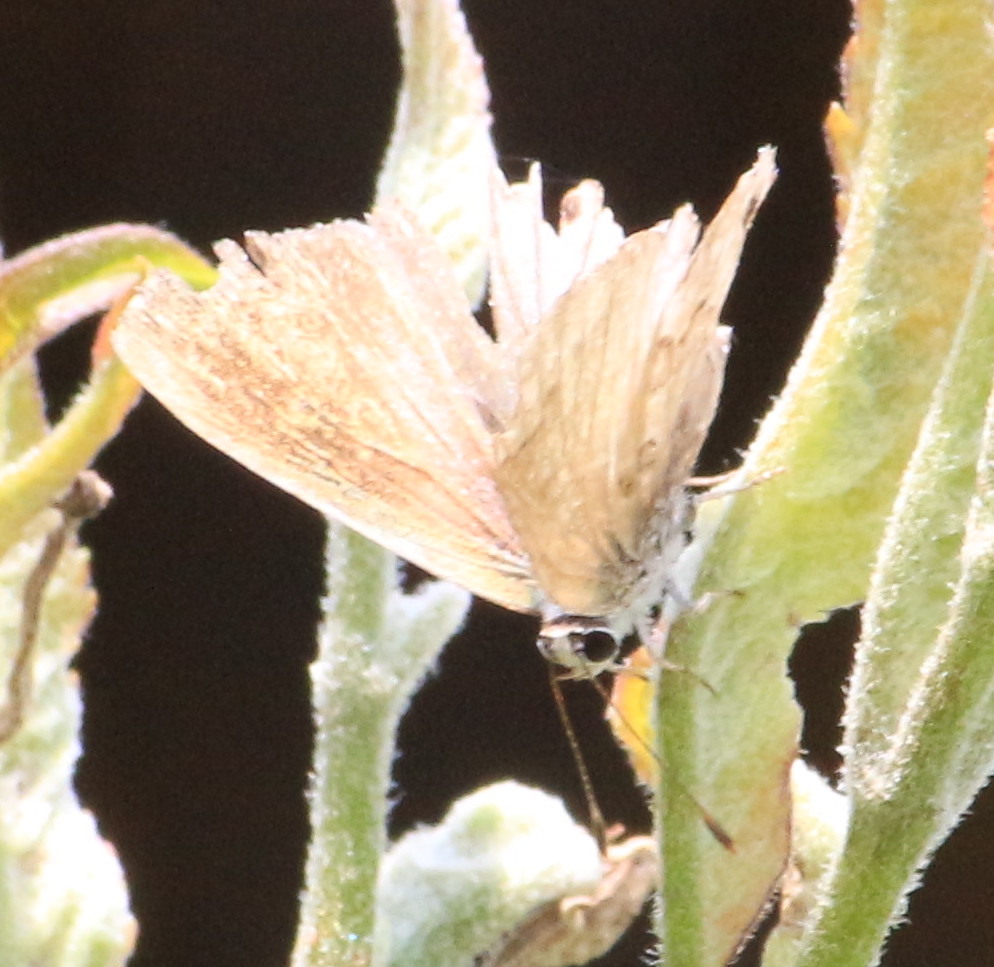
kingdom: Animalia
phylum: Arthropoda
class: Insecta
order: Lepidoptera
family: Lycaenidae
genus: Thecla
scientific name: Thecla cestri
